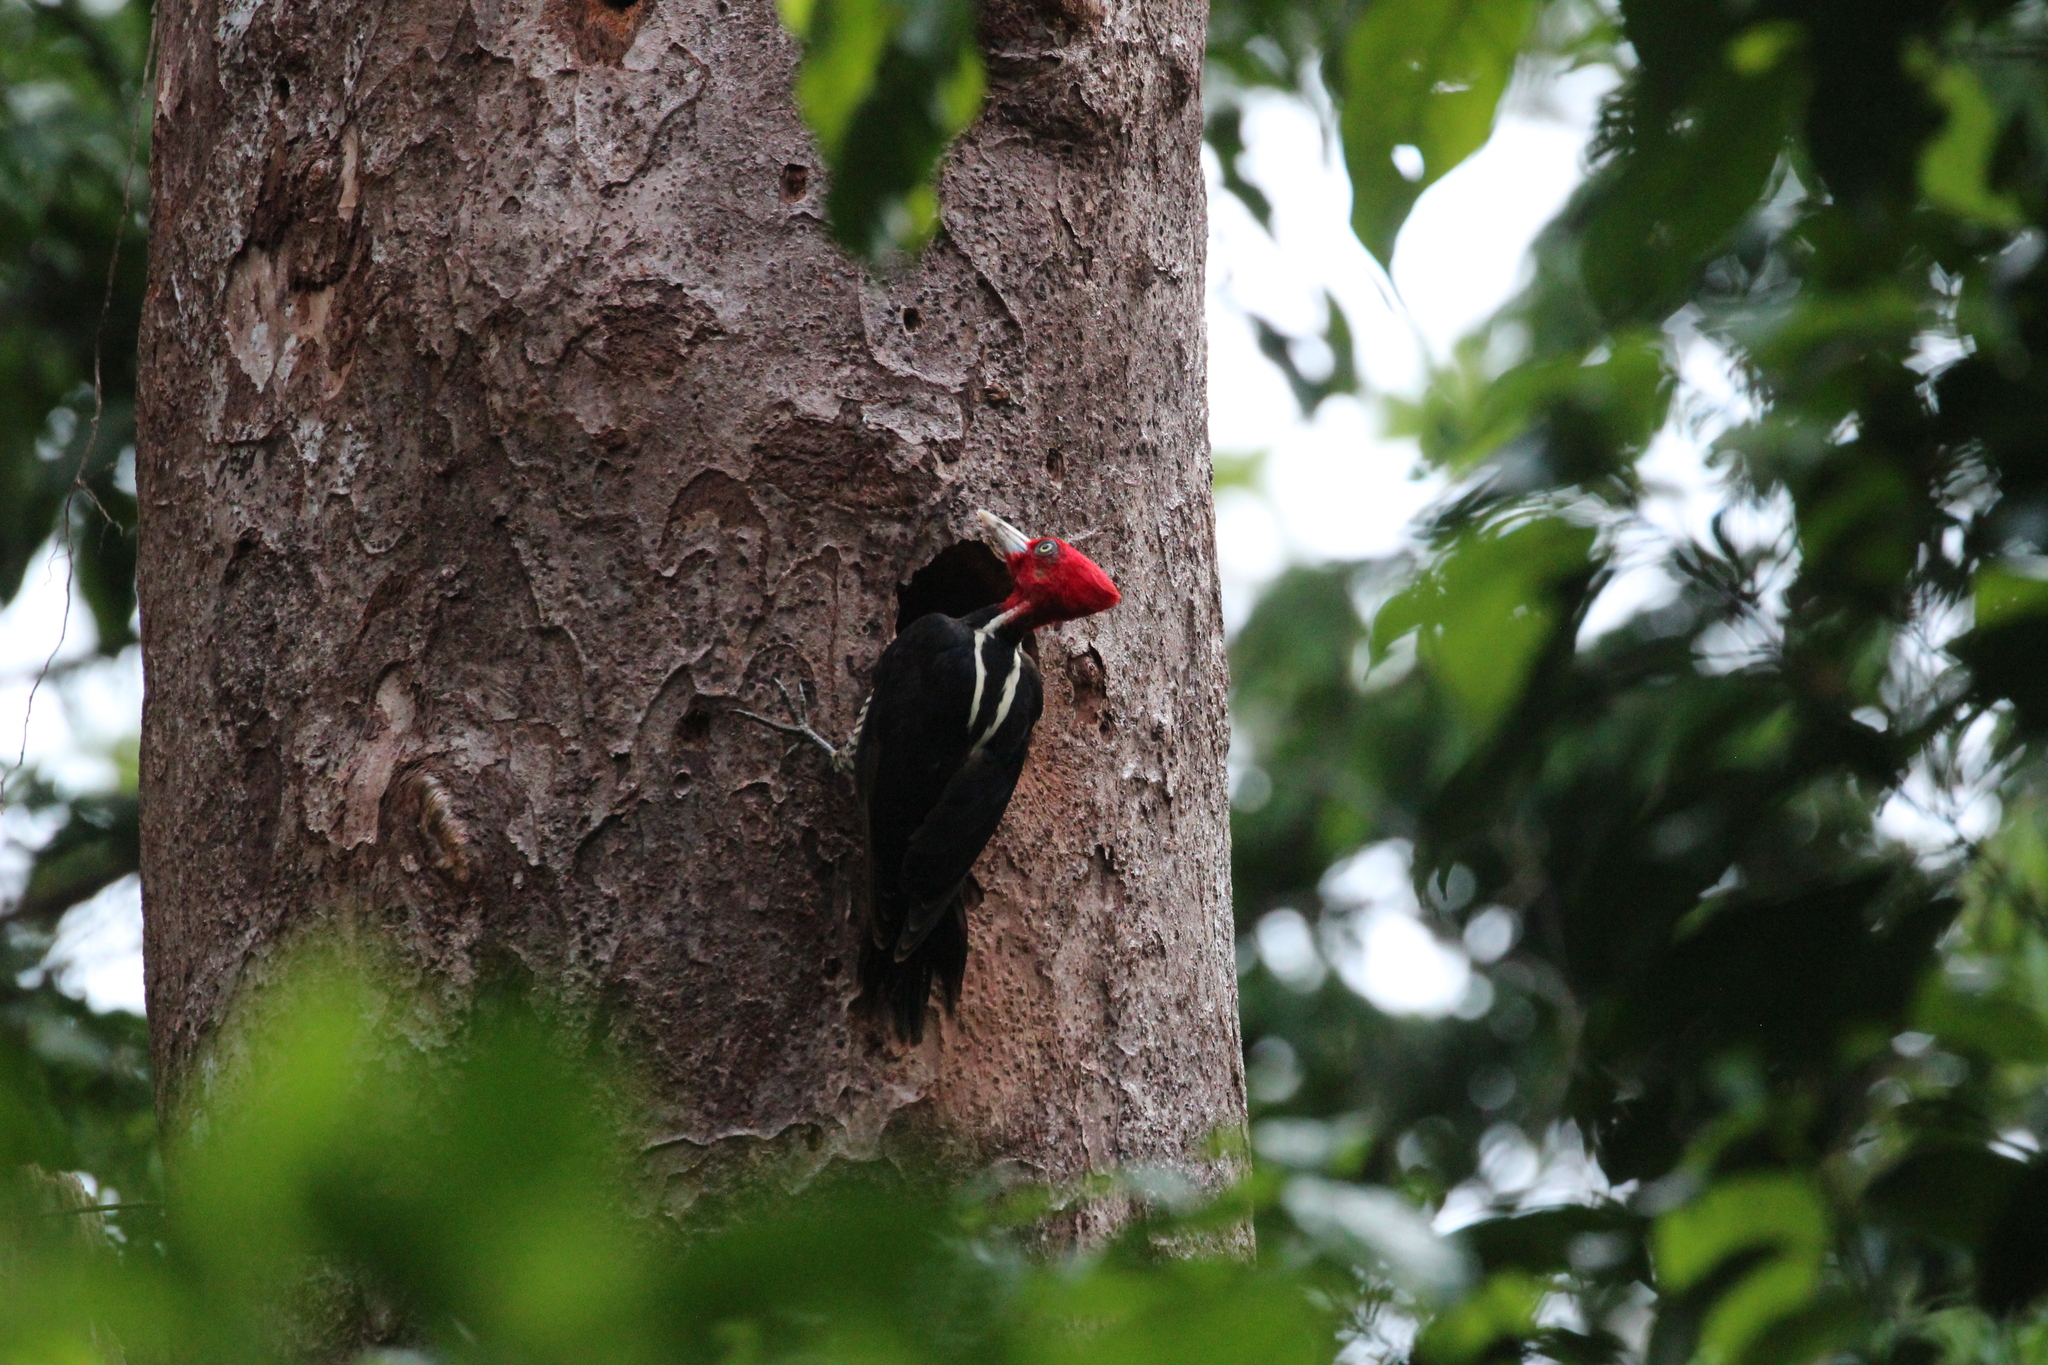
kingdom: Animalia
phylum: Chordata
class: Aves
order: Piciformes
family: Picidae
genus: Campephilus
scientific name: Campephilus guatemalensis
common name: Pale-billed woodpecker
